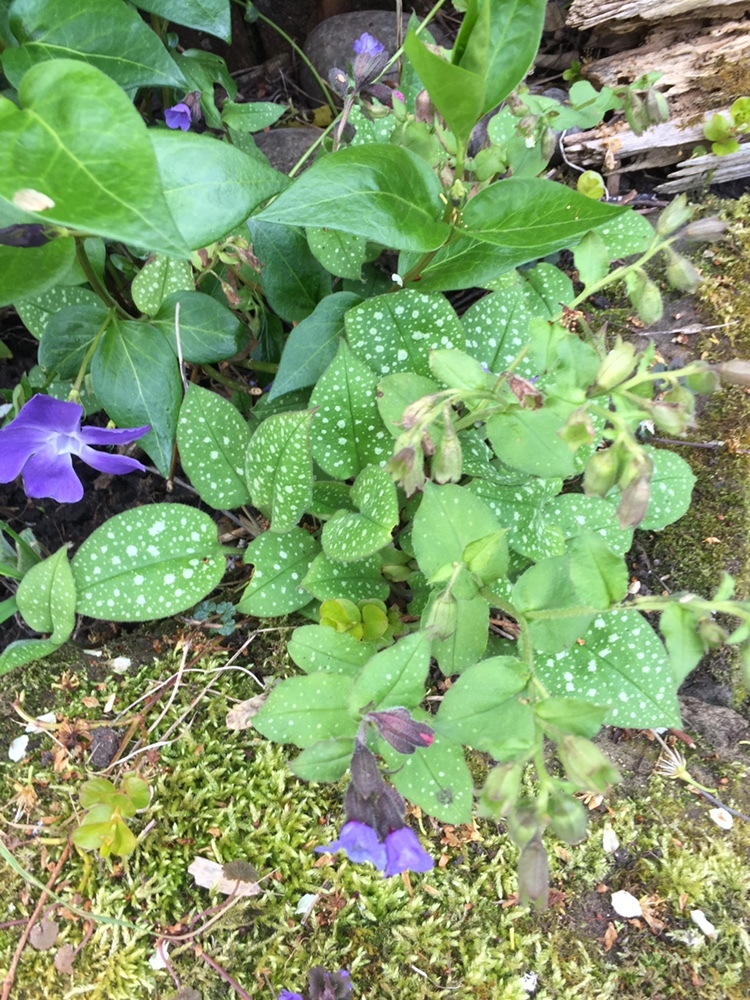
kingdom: Plantae
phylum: Tracheophyta
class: Magnoliopsida
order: Boraginales
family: Boraginaceae
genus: Pulmonaria
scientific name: Pulmonaria officinalis
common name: Lungwort
